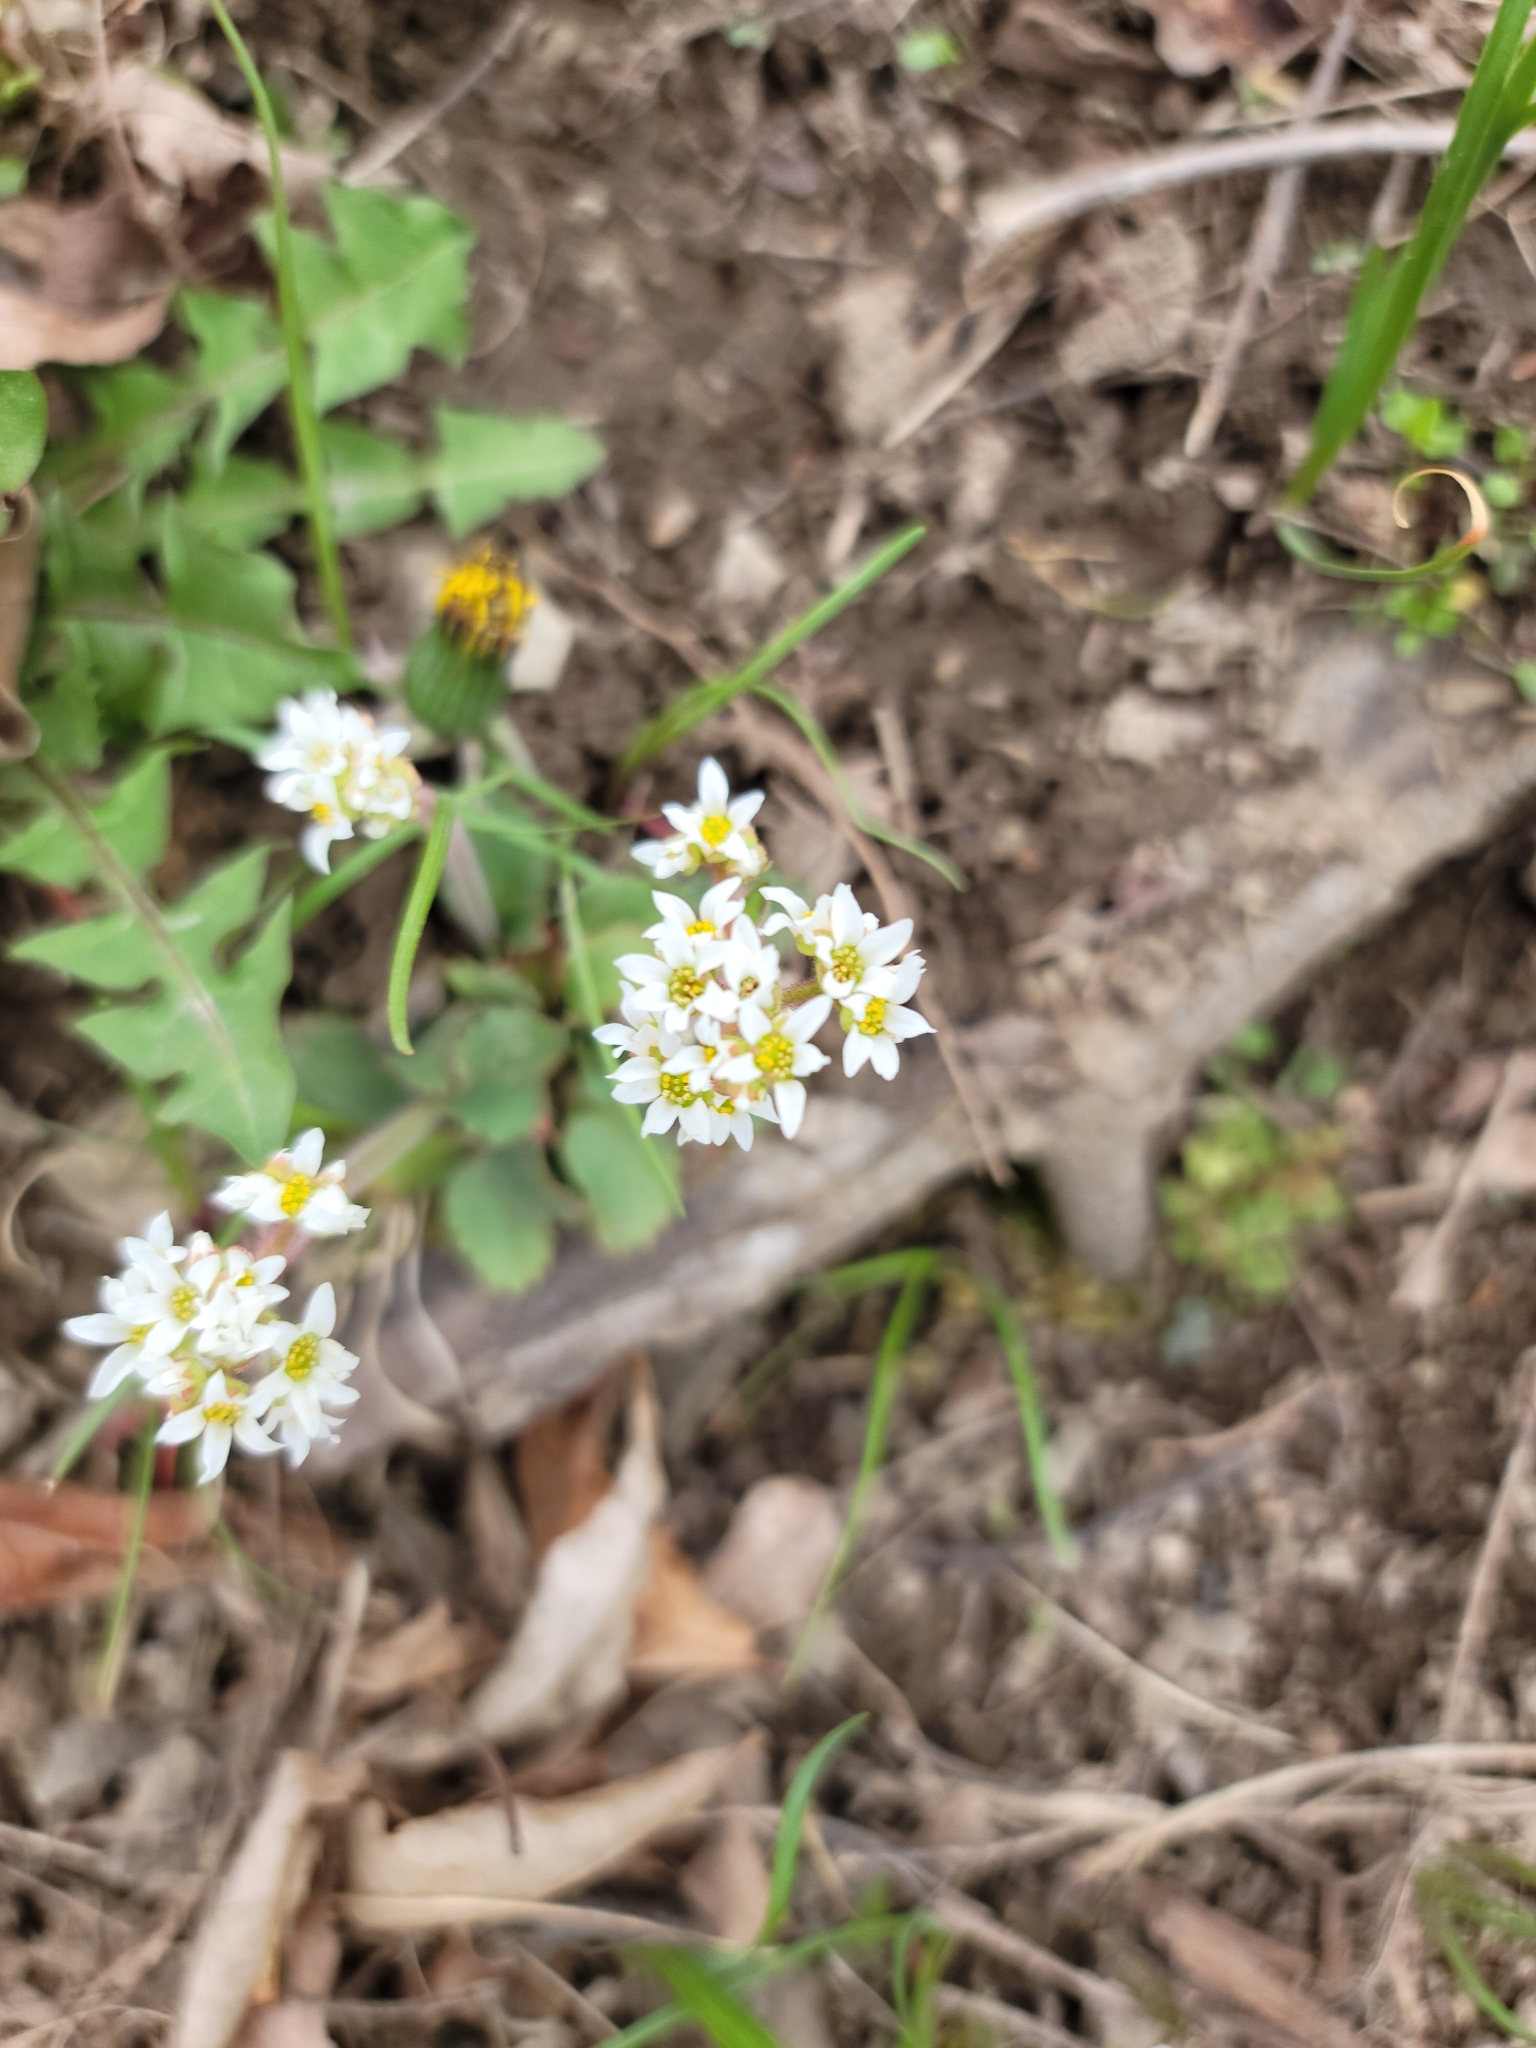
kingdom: Plantae
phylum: Tracheophyta
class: Magnoliopsida
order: Saxifragales
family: Saxifragaceae
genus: Micranthes
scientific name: Micranthes virginiensis
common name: Early saxifrage
